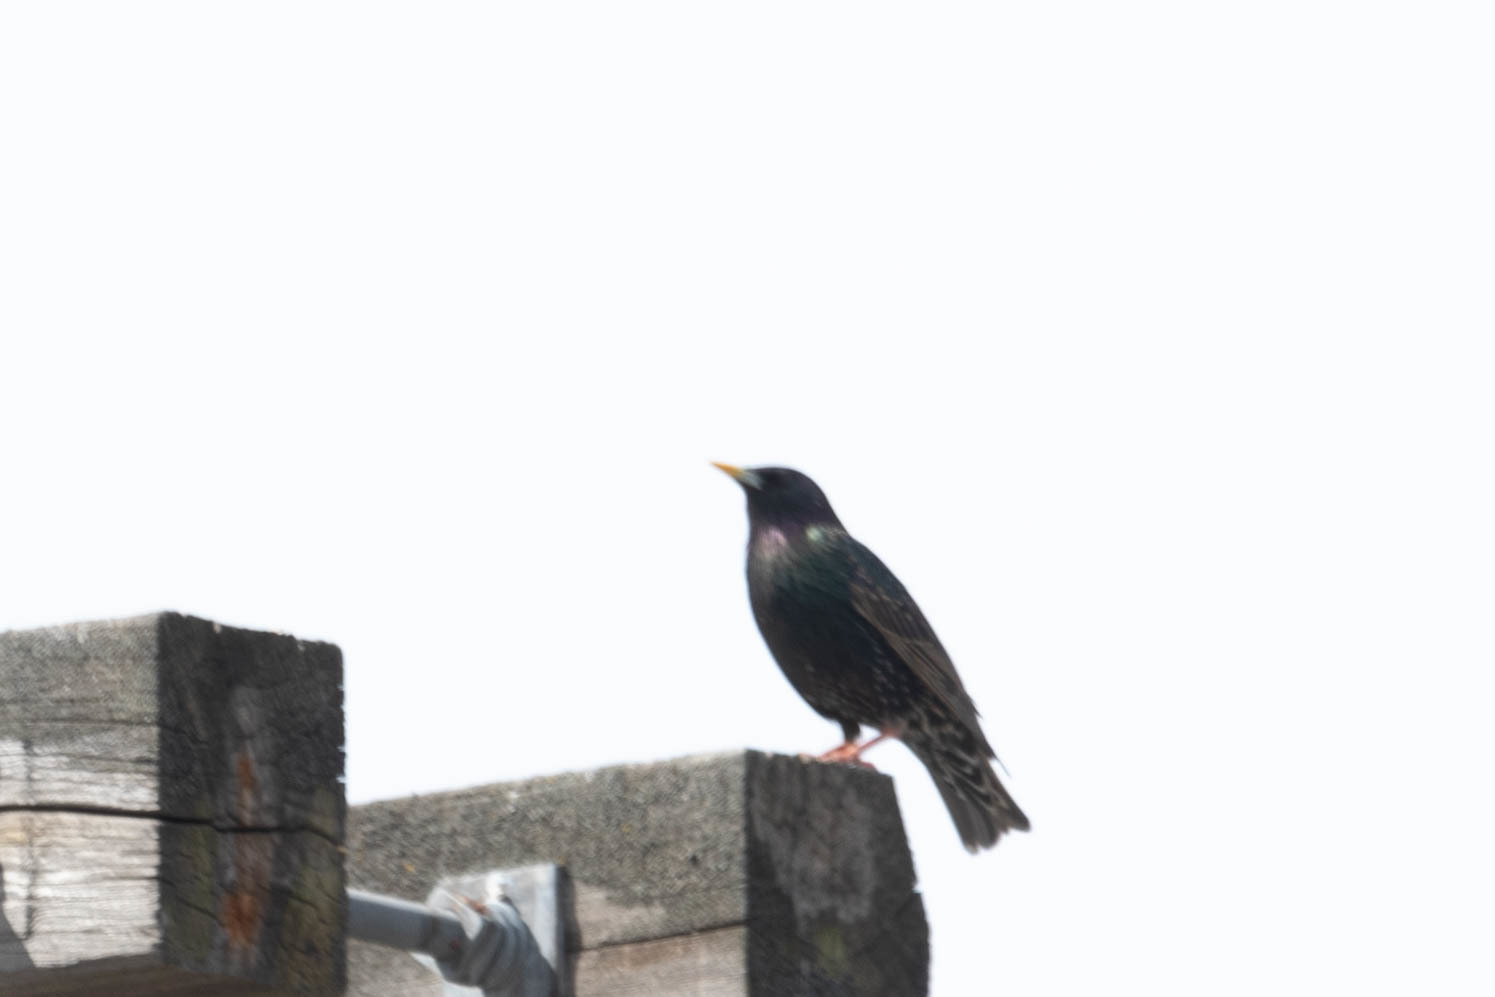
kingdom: Animalia
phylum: Chordata
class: Aves
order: Passeriformes
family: Sturnidae
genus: Sturnus
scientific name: Sturnus vulgaris
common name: Common starling
